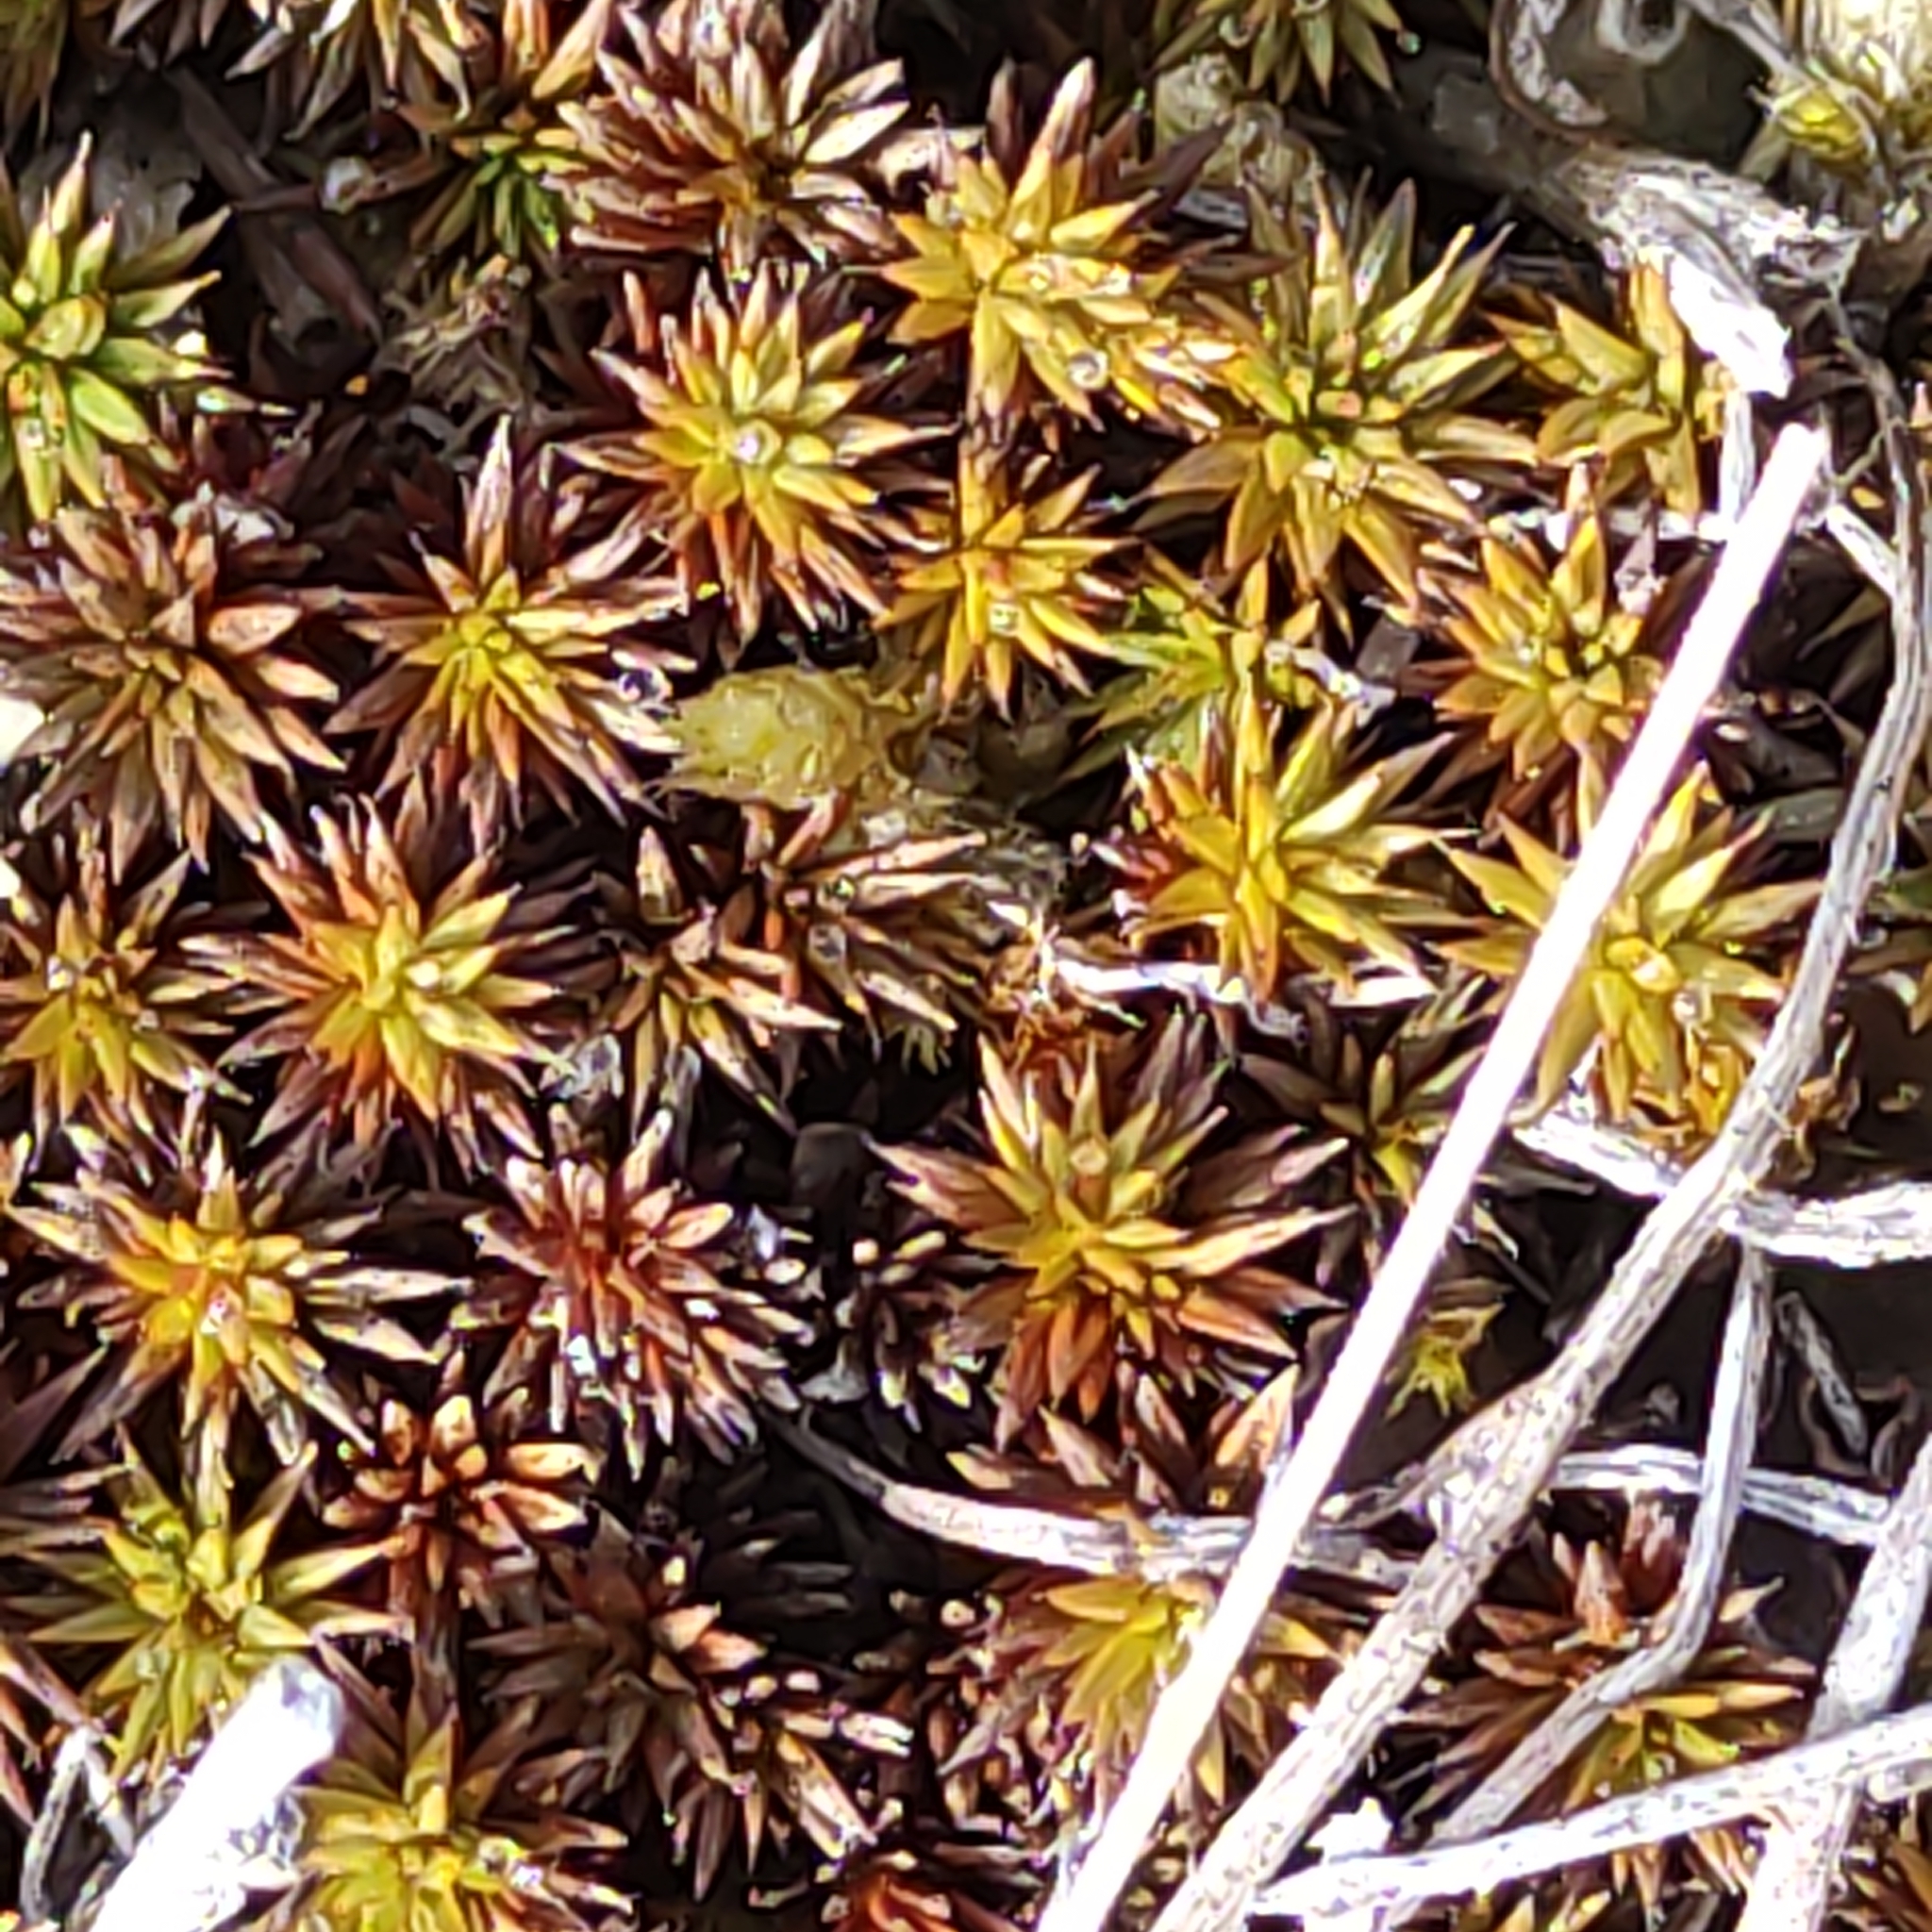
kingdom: Plantae
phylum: Bryophyta
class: Polytrichopsida
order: Polytrichales
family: Polytrichaceae
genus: Polytrichum
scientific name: Polytrichum juniperinum
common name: Juniper haircap moss
